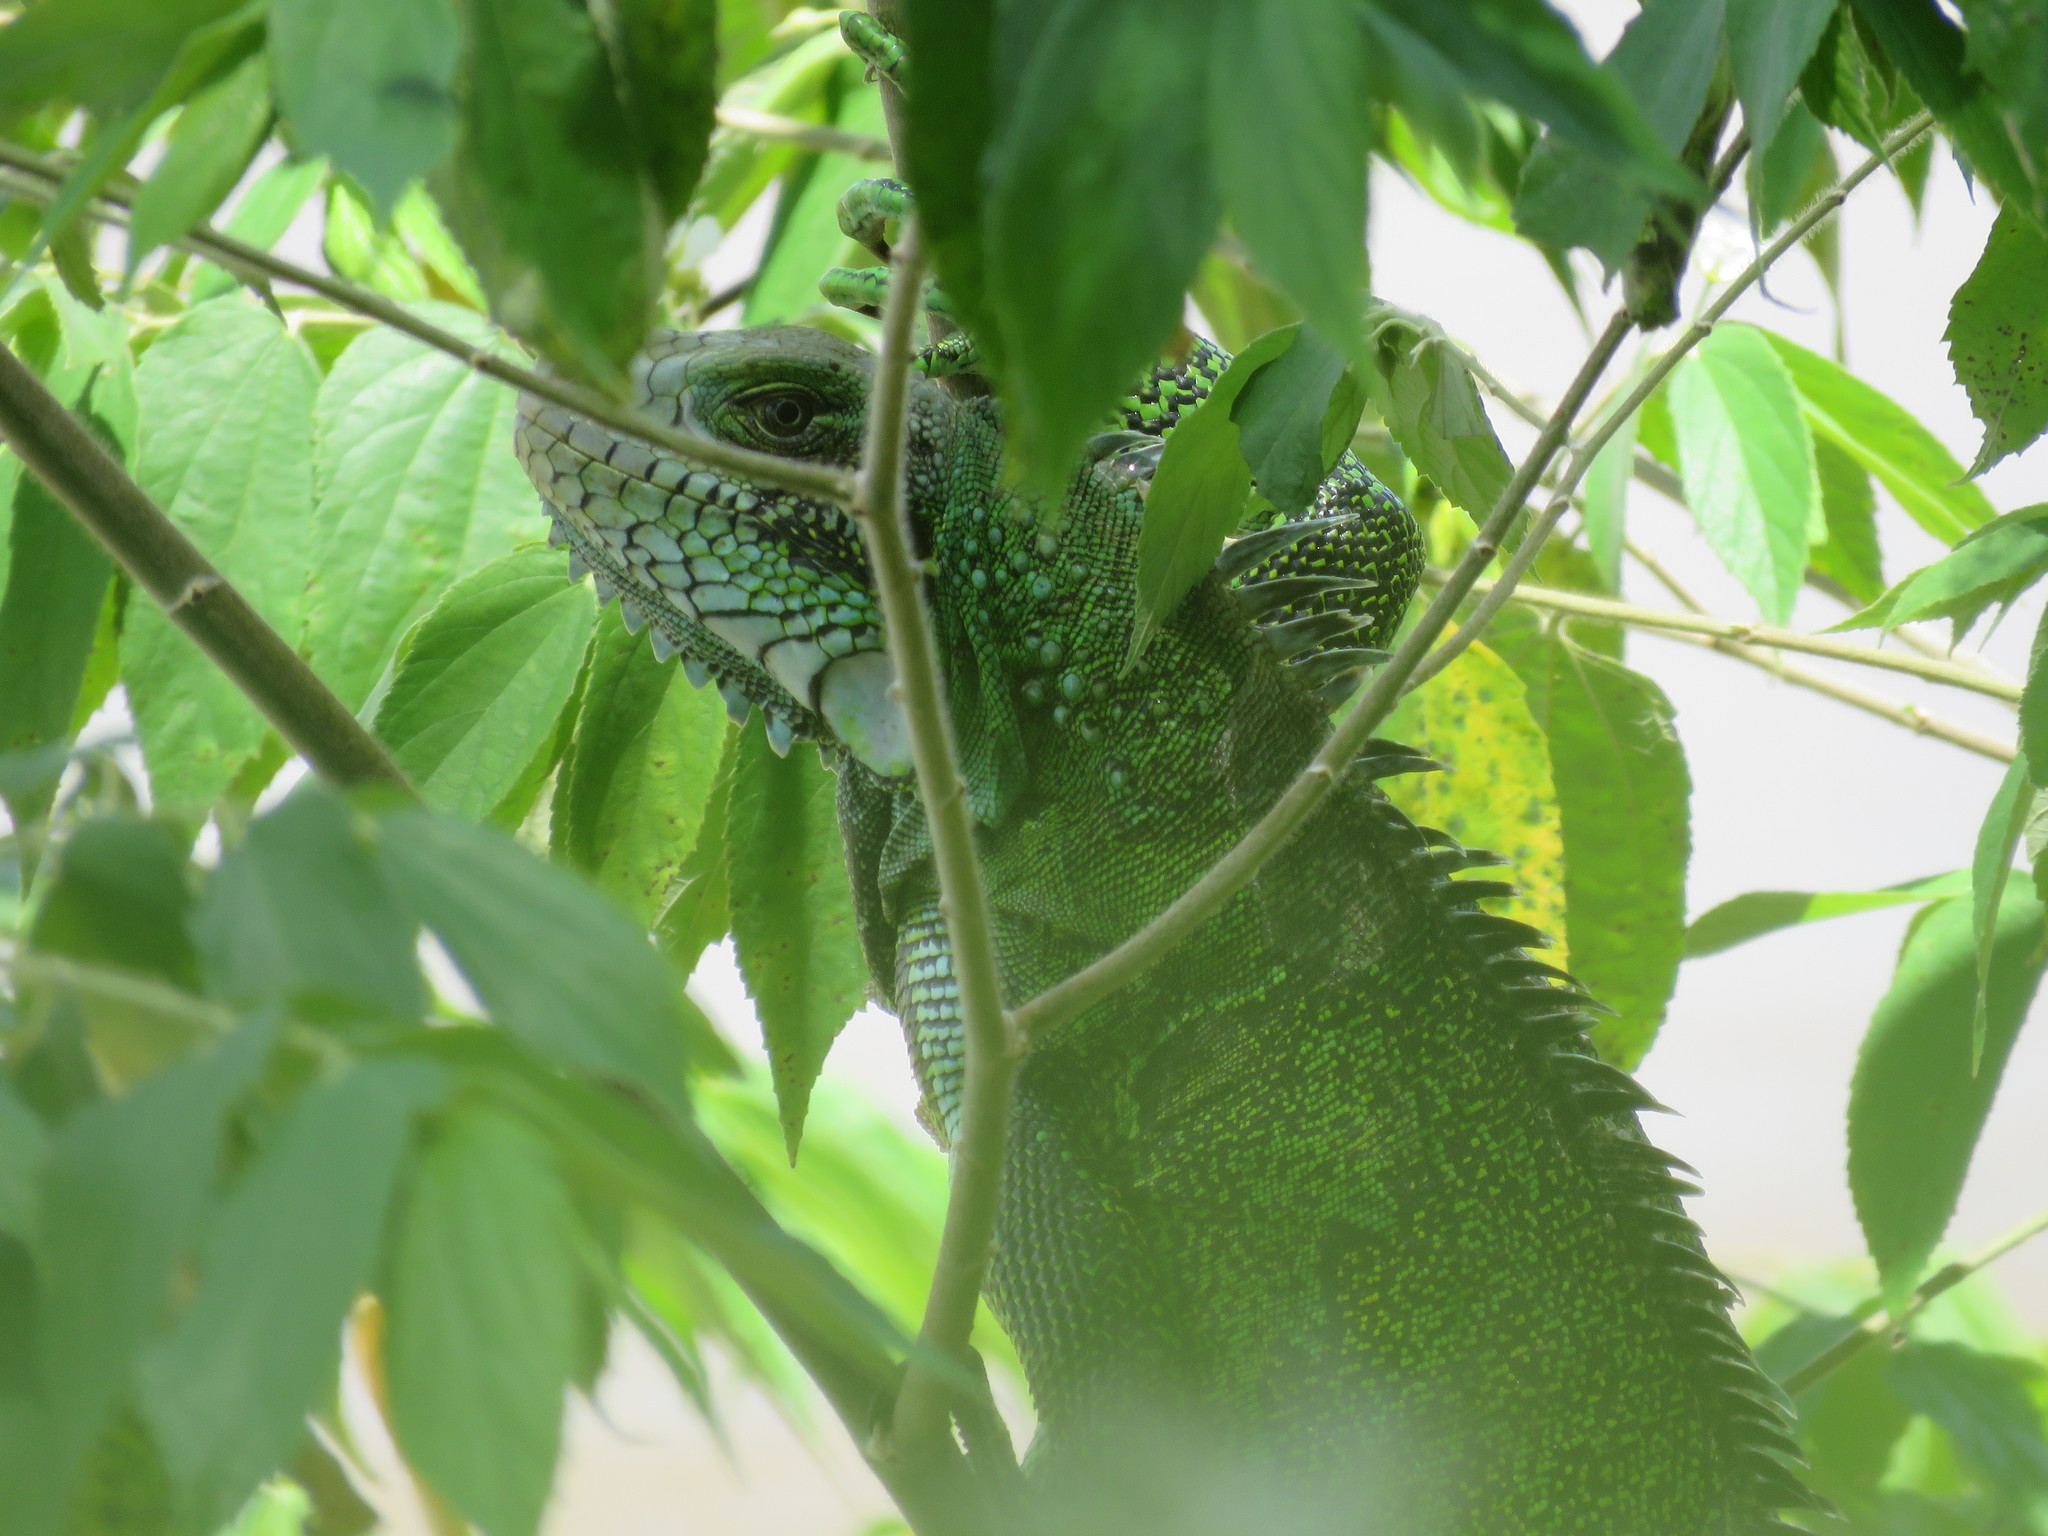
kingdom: Animalia
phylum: Chordata
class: Squamata
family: Iguanidae
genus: Iguana
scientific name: Iguana iguana
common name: Green iguana
